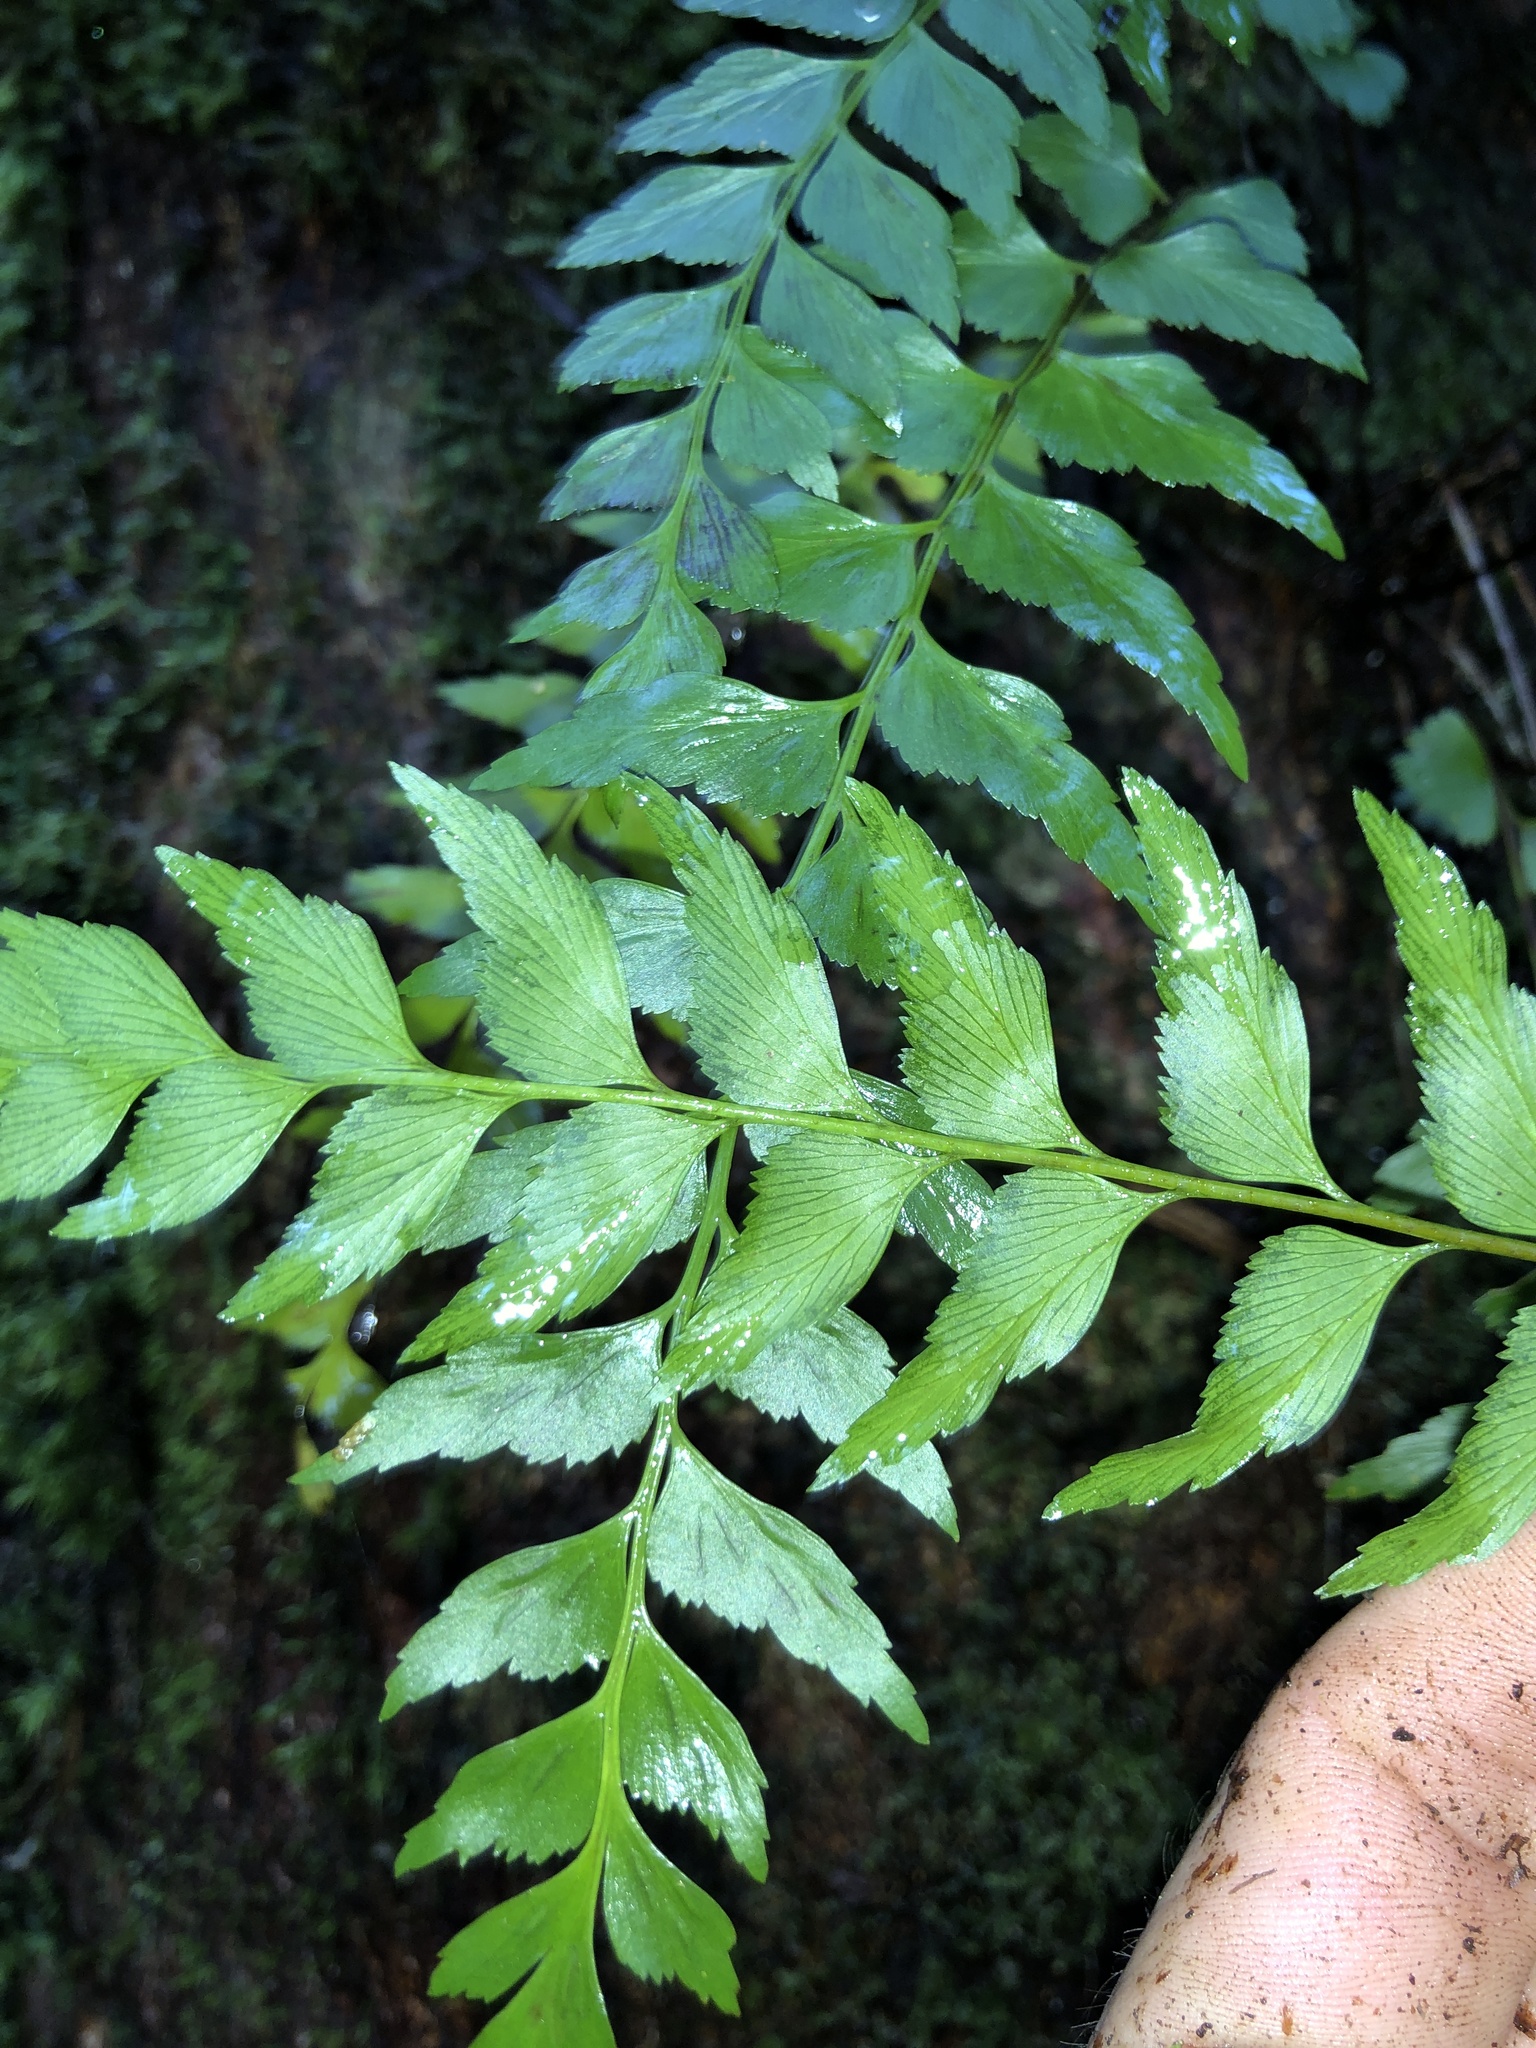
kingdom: Plantae
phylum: Tracheophyta
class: Polypodiopsida
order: Polypodiales
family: Aspleniaceae
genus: Asplenium
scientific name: Asplenium polyodon
